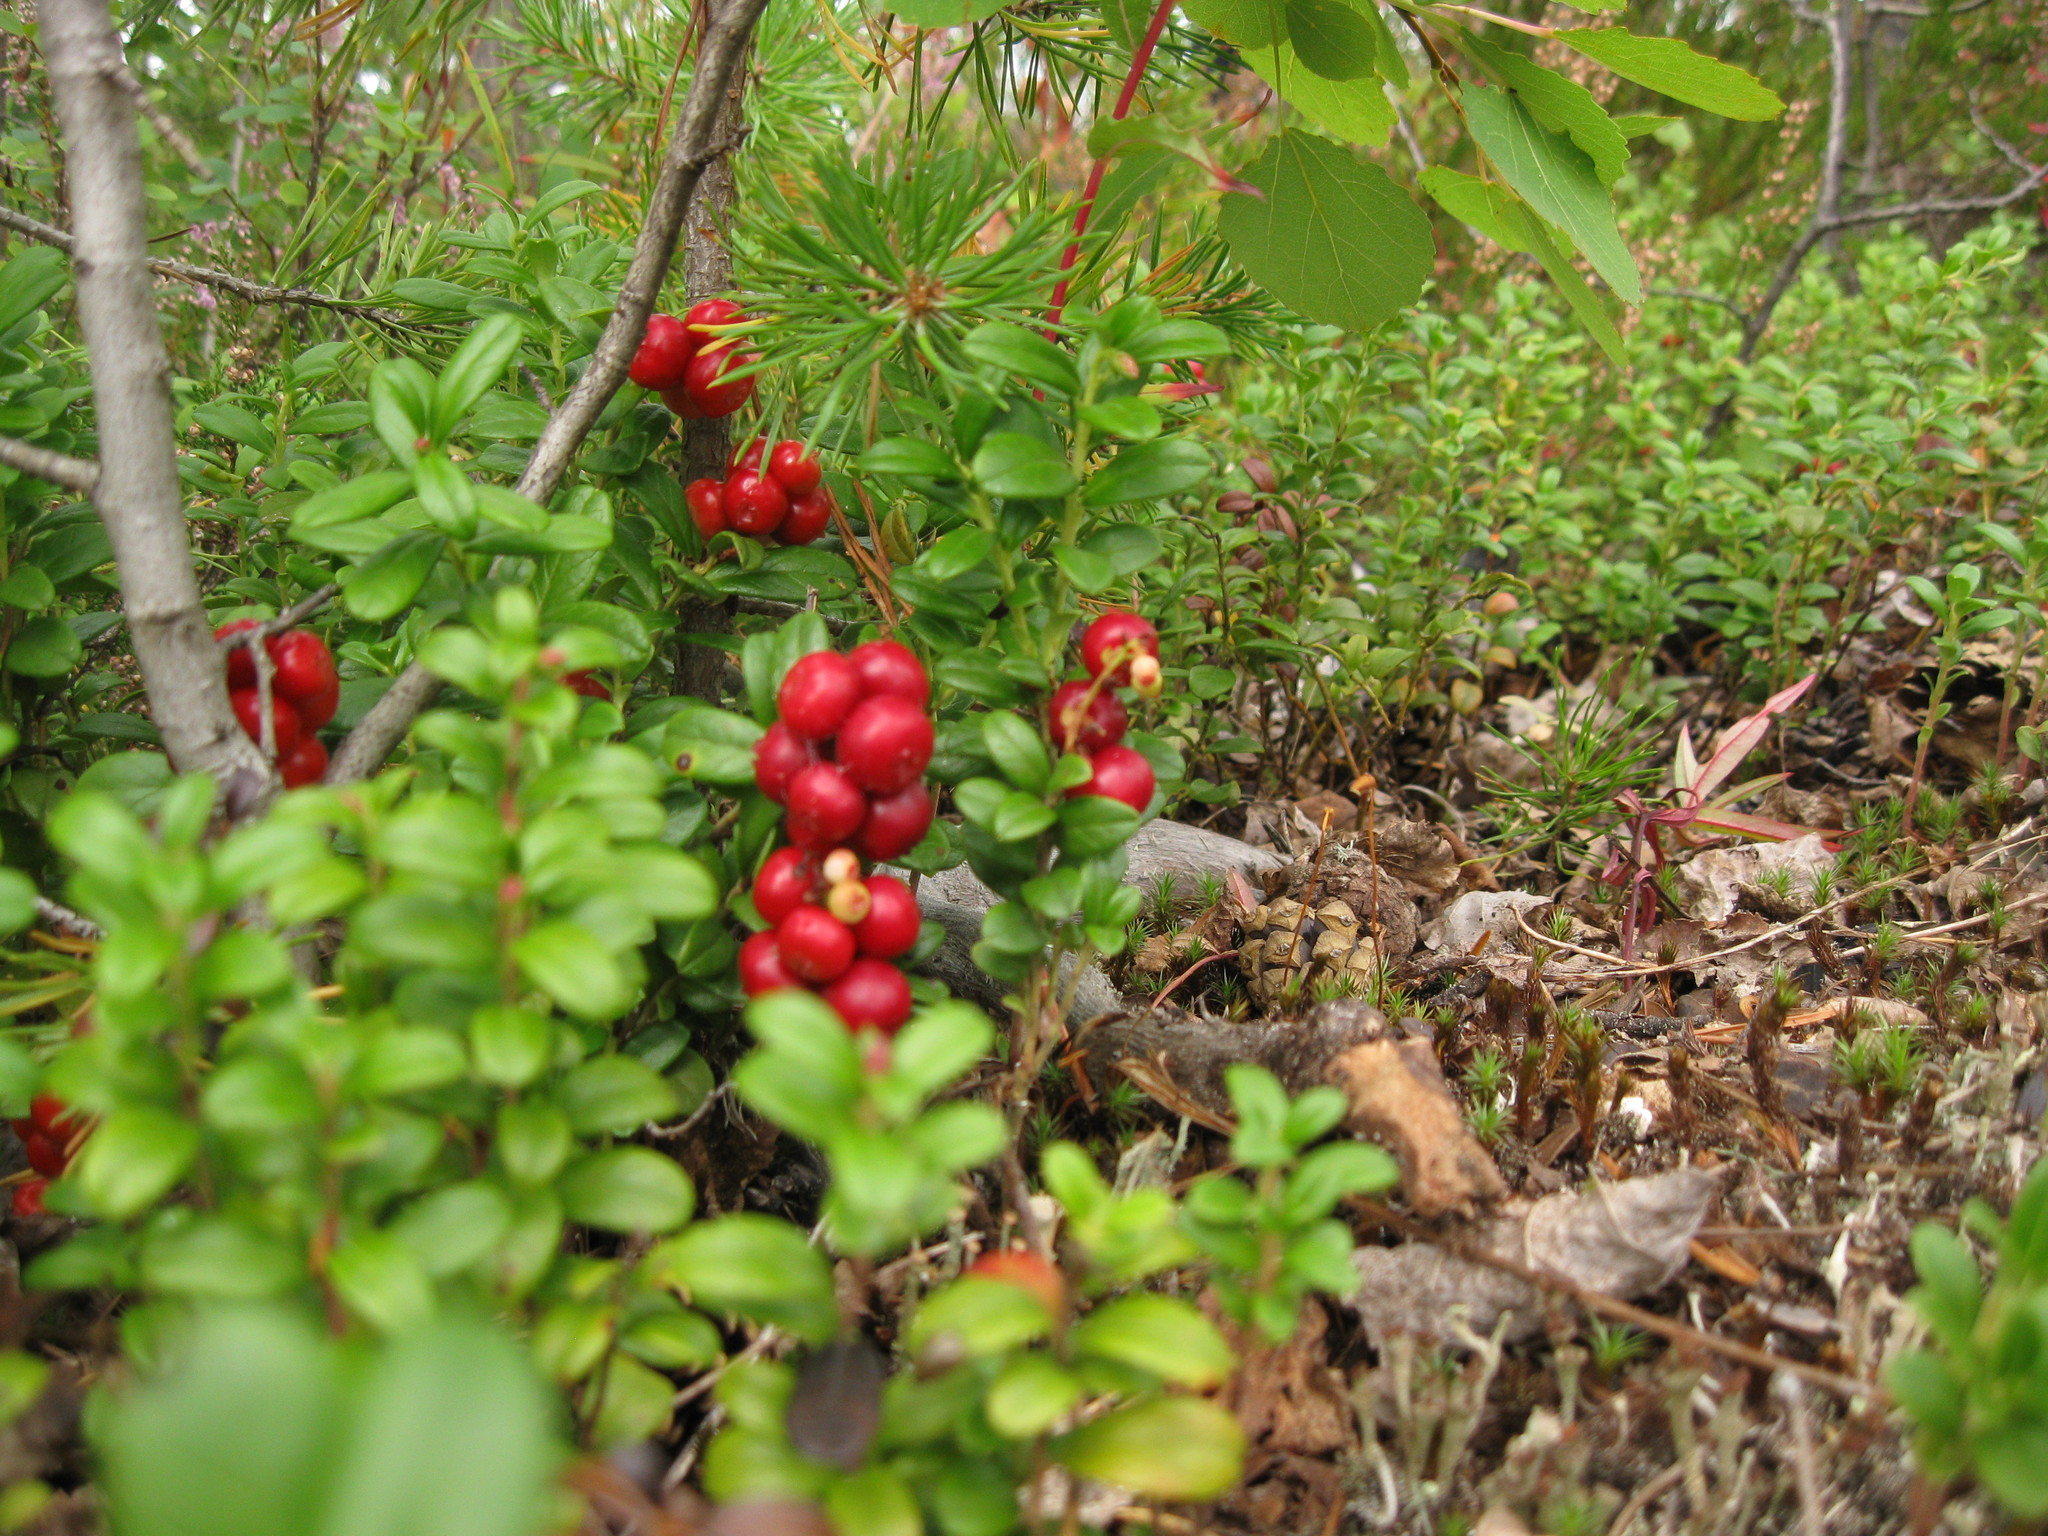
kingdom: Plantae
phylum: Tracheophyta
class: Magnoliopsida
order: Ericales
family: Ericaceae
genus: Vaccinium
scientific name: Vaccinium vitis-idaea
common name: Cowberry
